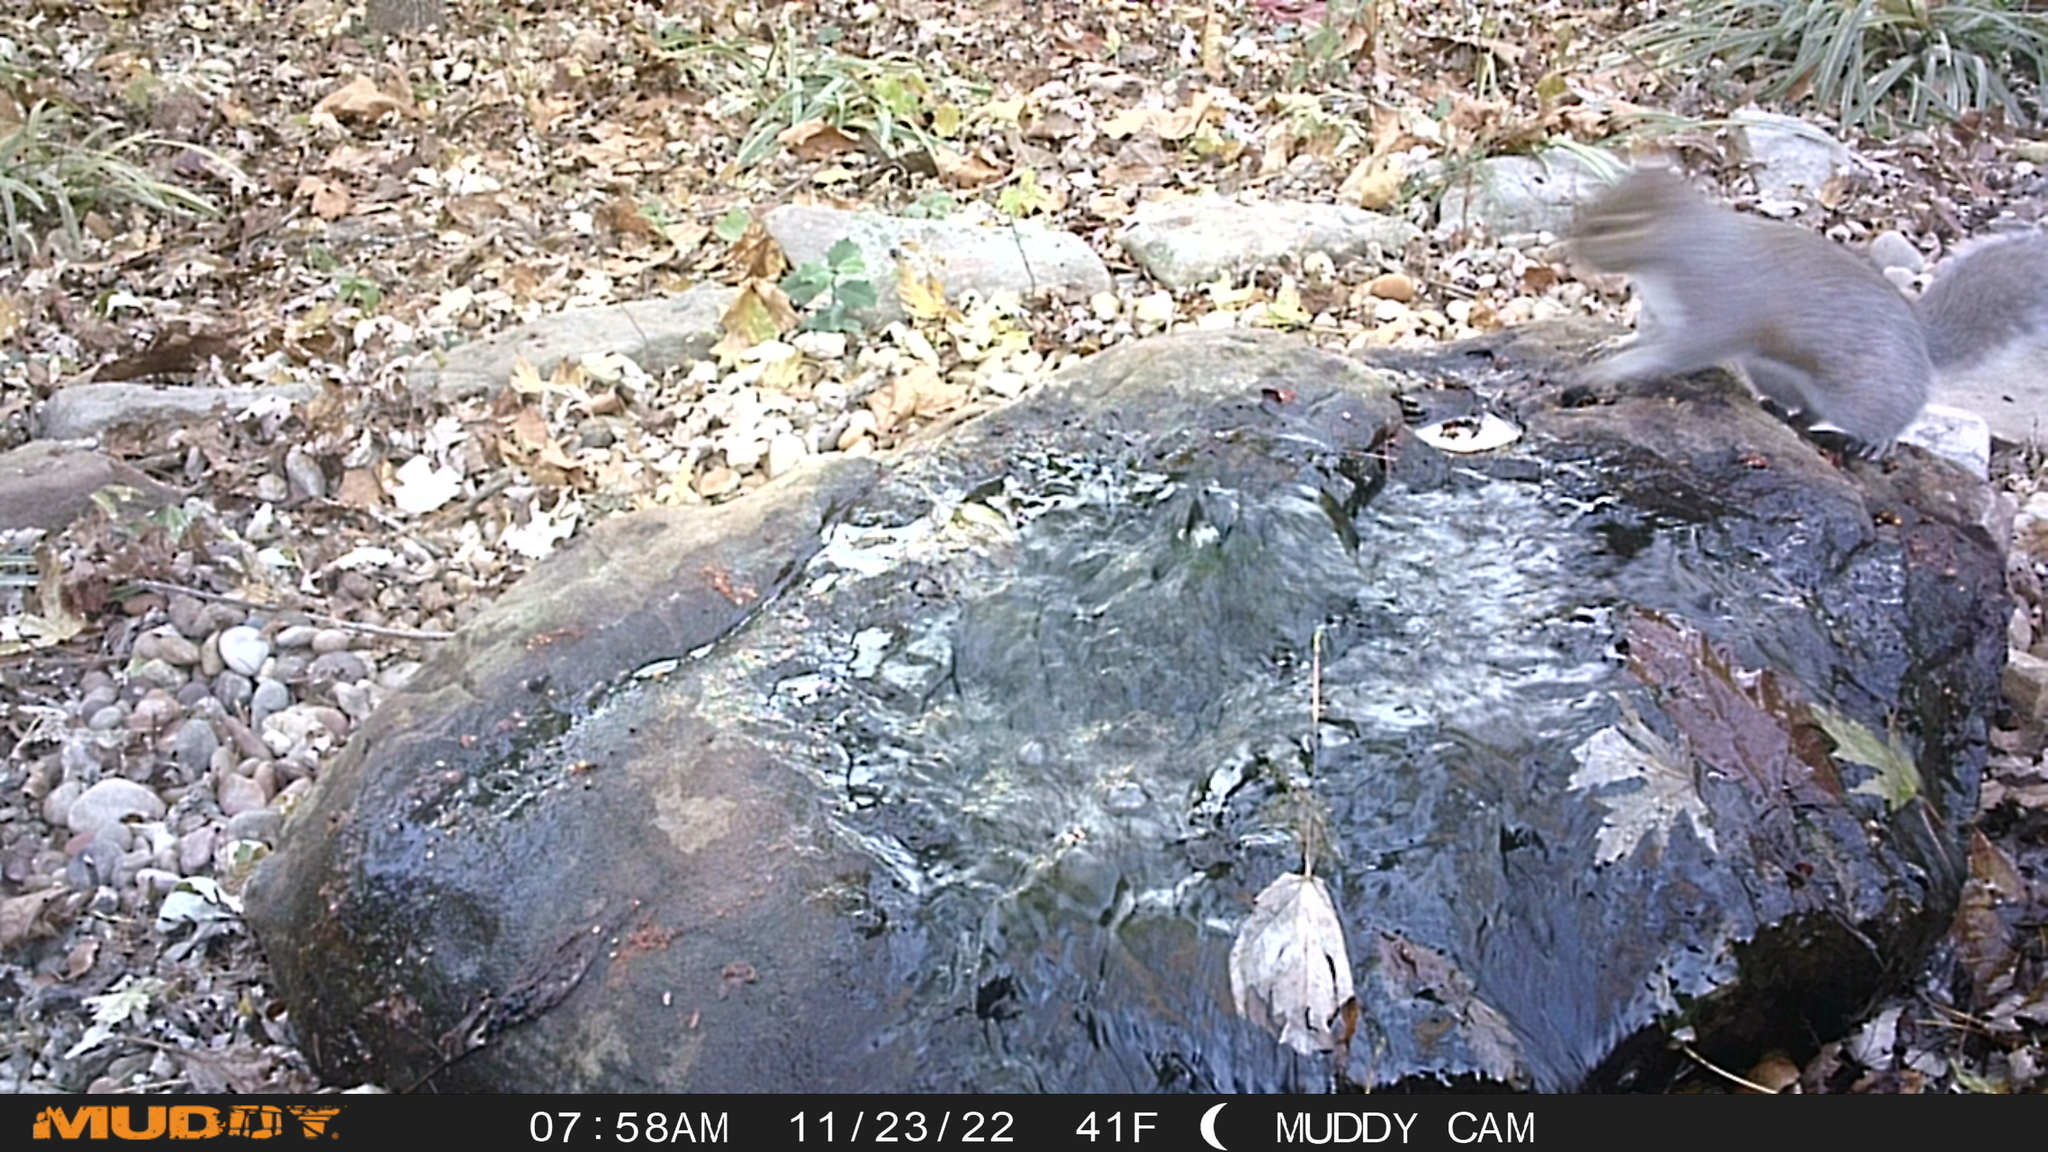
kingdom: Animalia
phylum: Chordata
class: Mammalia
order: Rodentia
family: Sciuridae
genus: Sciurus
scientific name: Sciurus carolinensis
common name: Eastern gray squirrel
